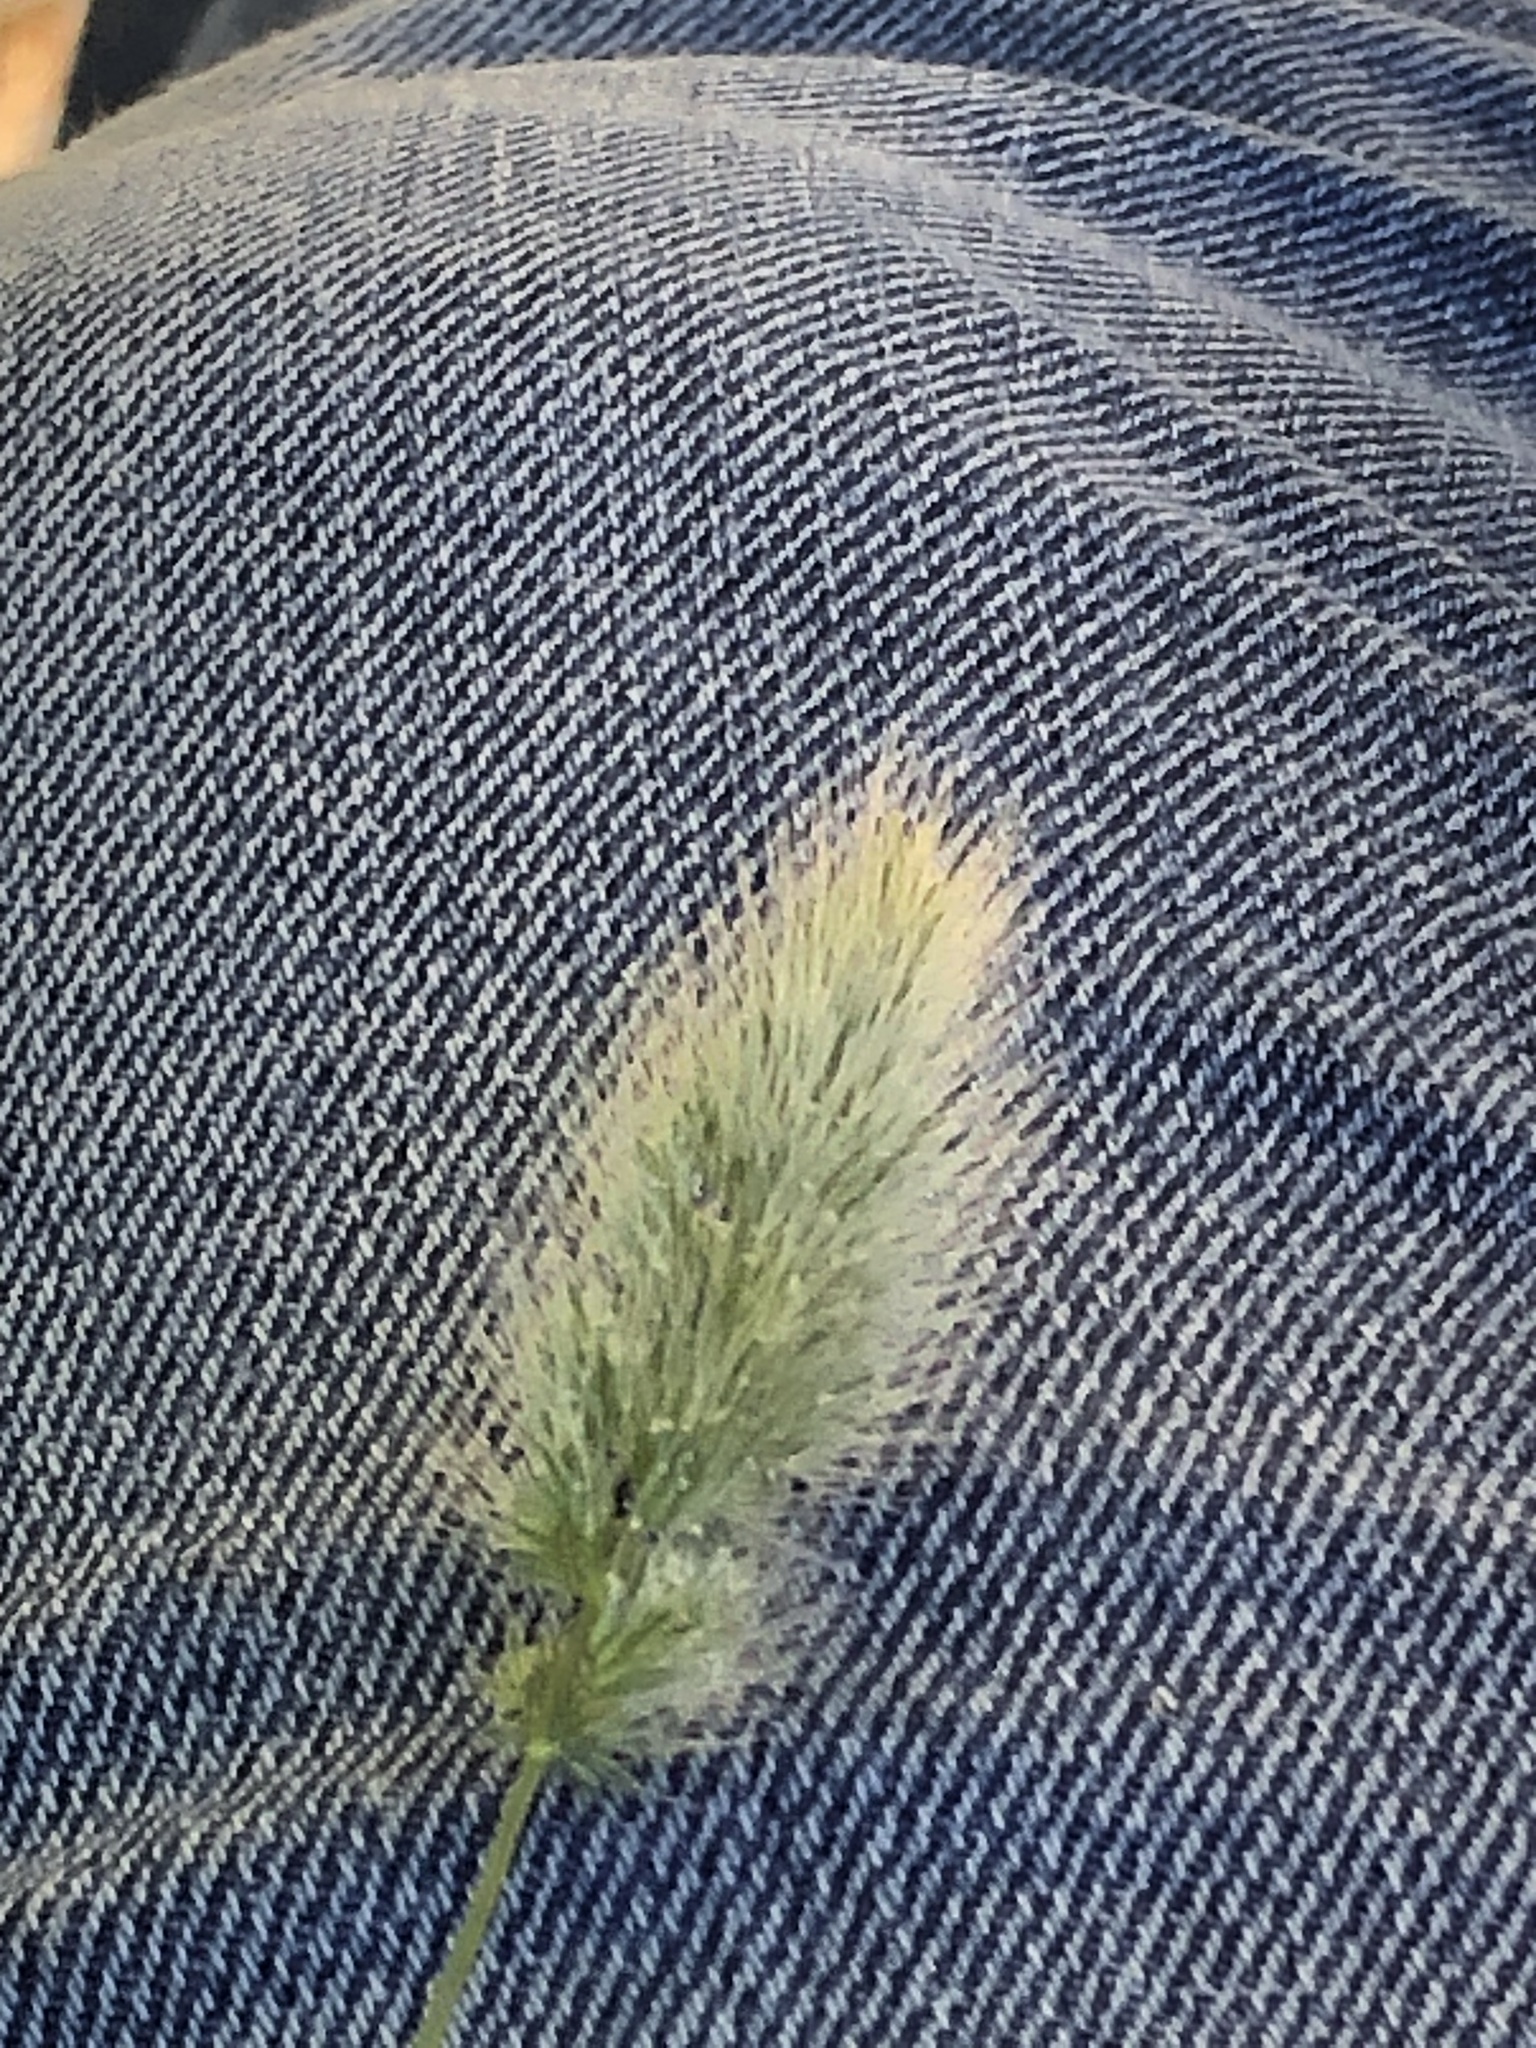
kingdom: Plantae
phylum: Tracheophyta
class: Liliopsida
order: Poales
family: Poaceae
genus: Polypogon
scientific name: Polypogon monspeliensis
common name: Annual rabbitsfoot grass
